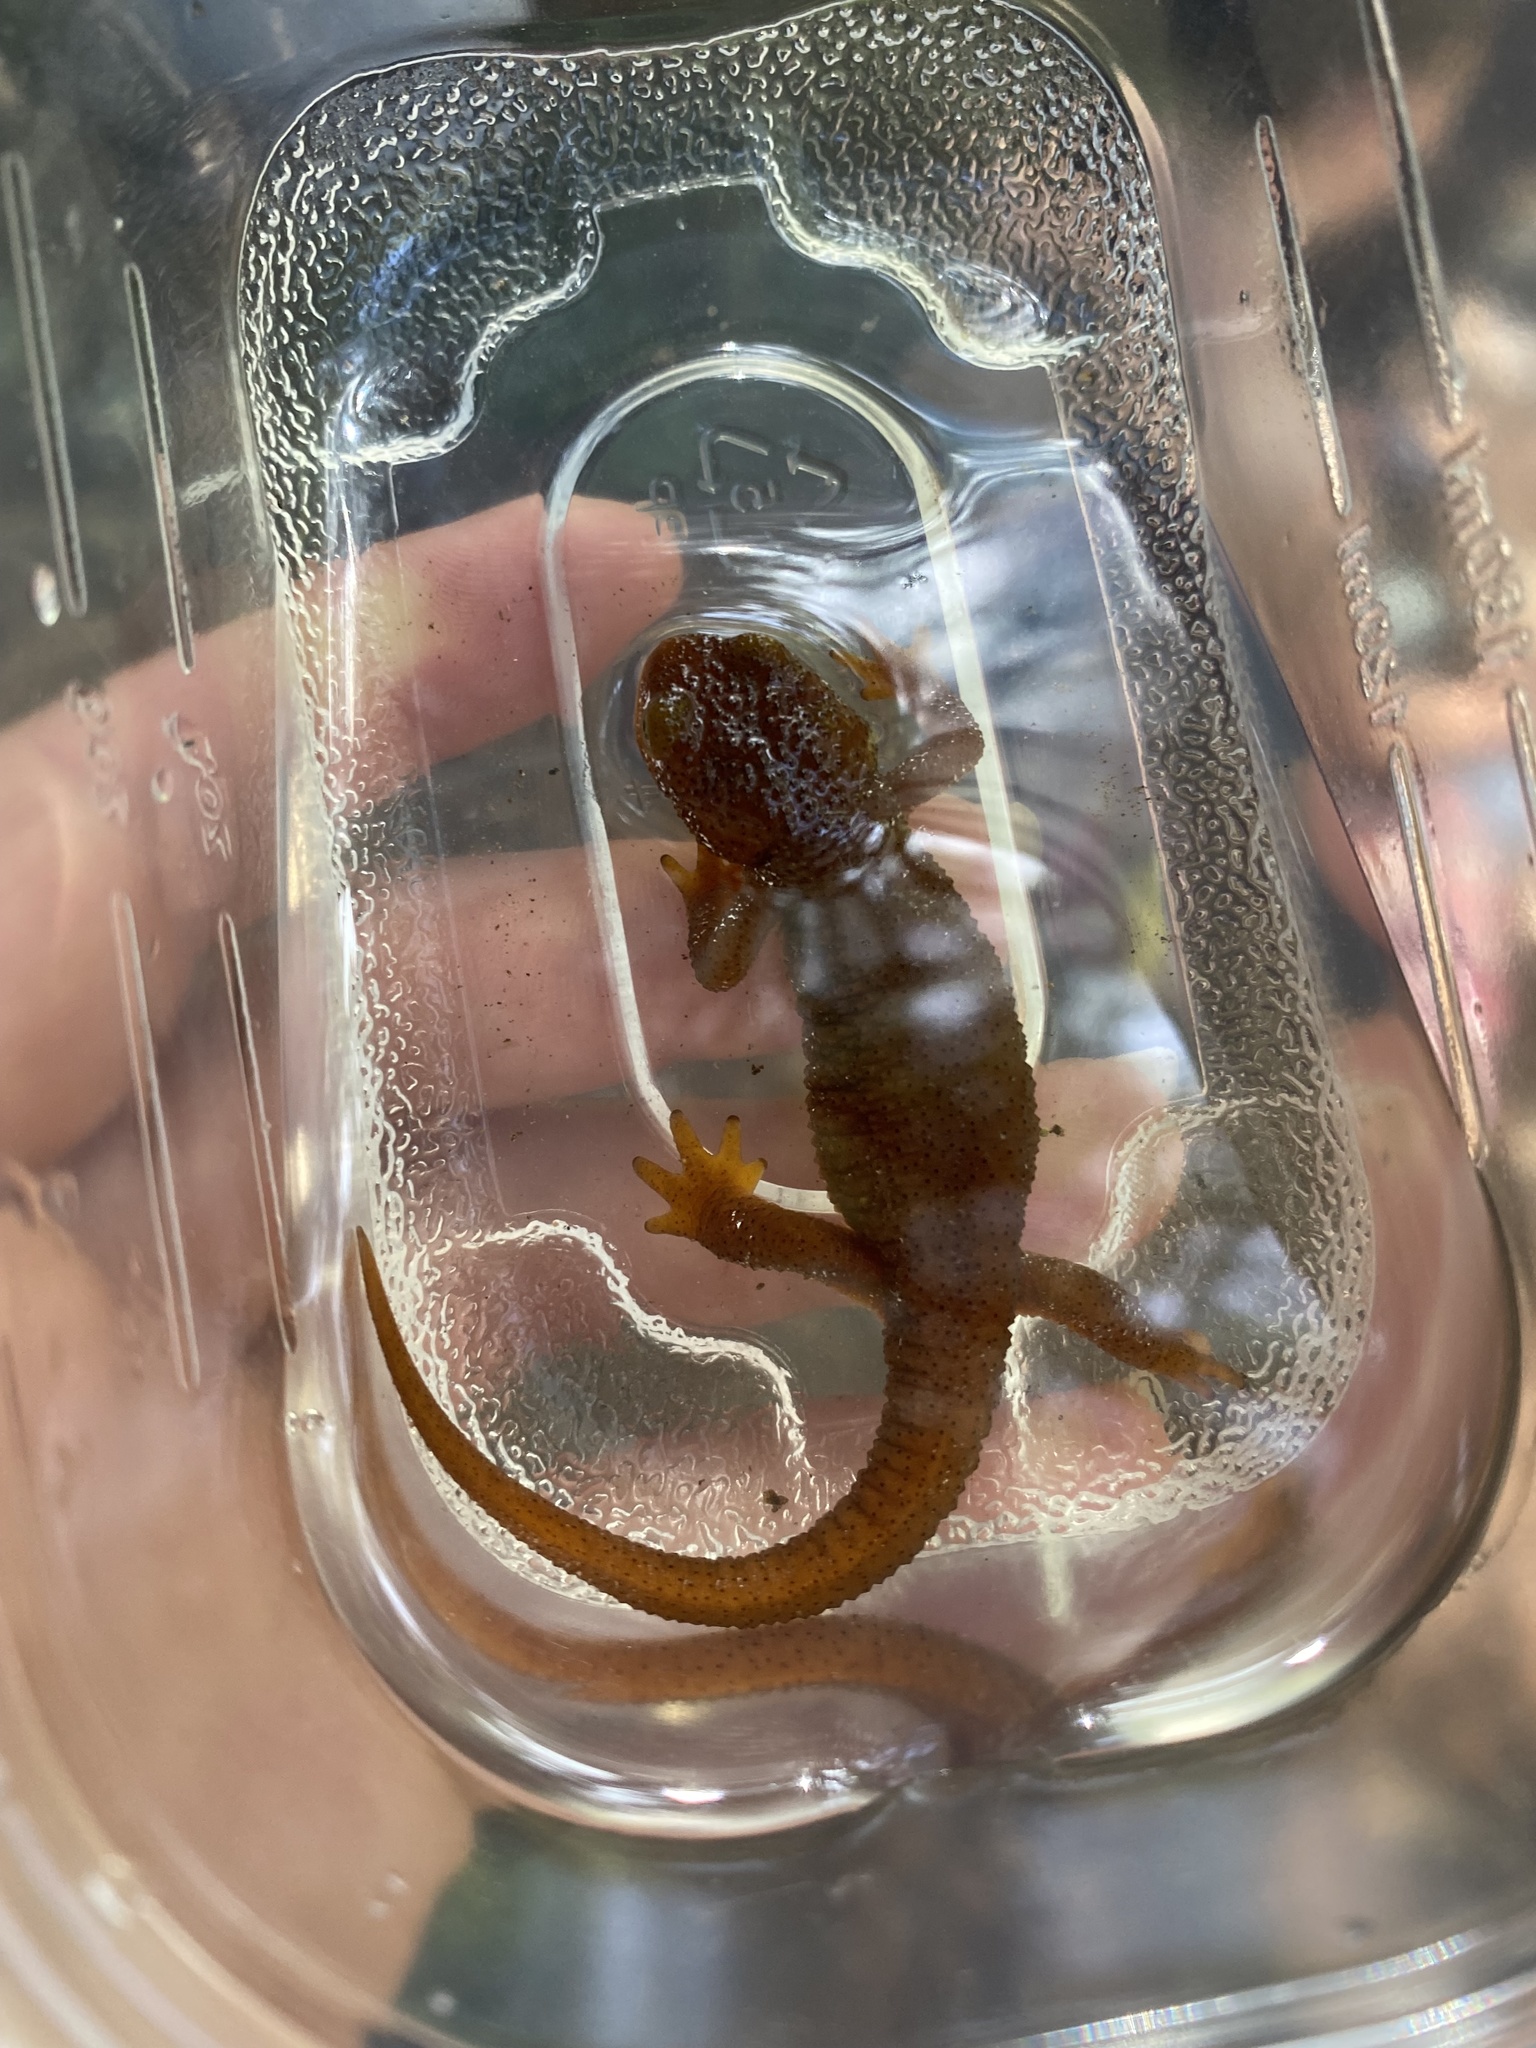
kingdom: Animalia
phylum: Chordata
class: Amphibia
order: Caudata
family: Salamandridae
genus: Taricha
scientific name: Taricha granulosa
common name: Roughskin newt
